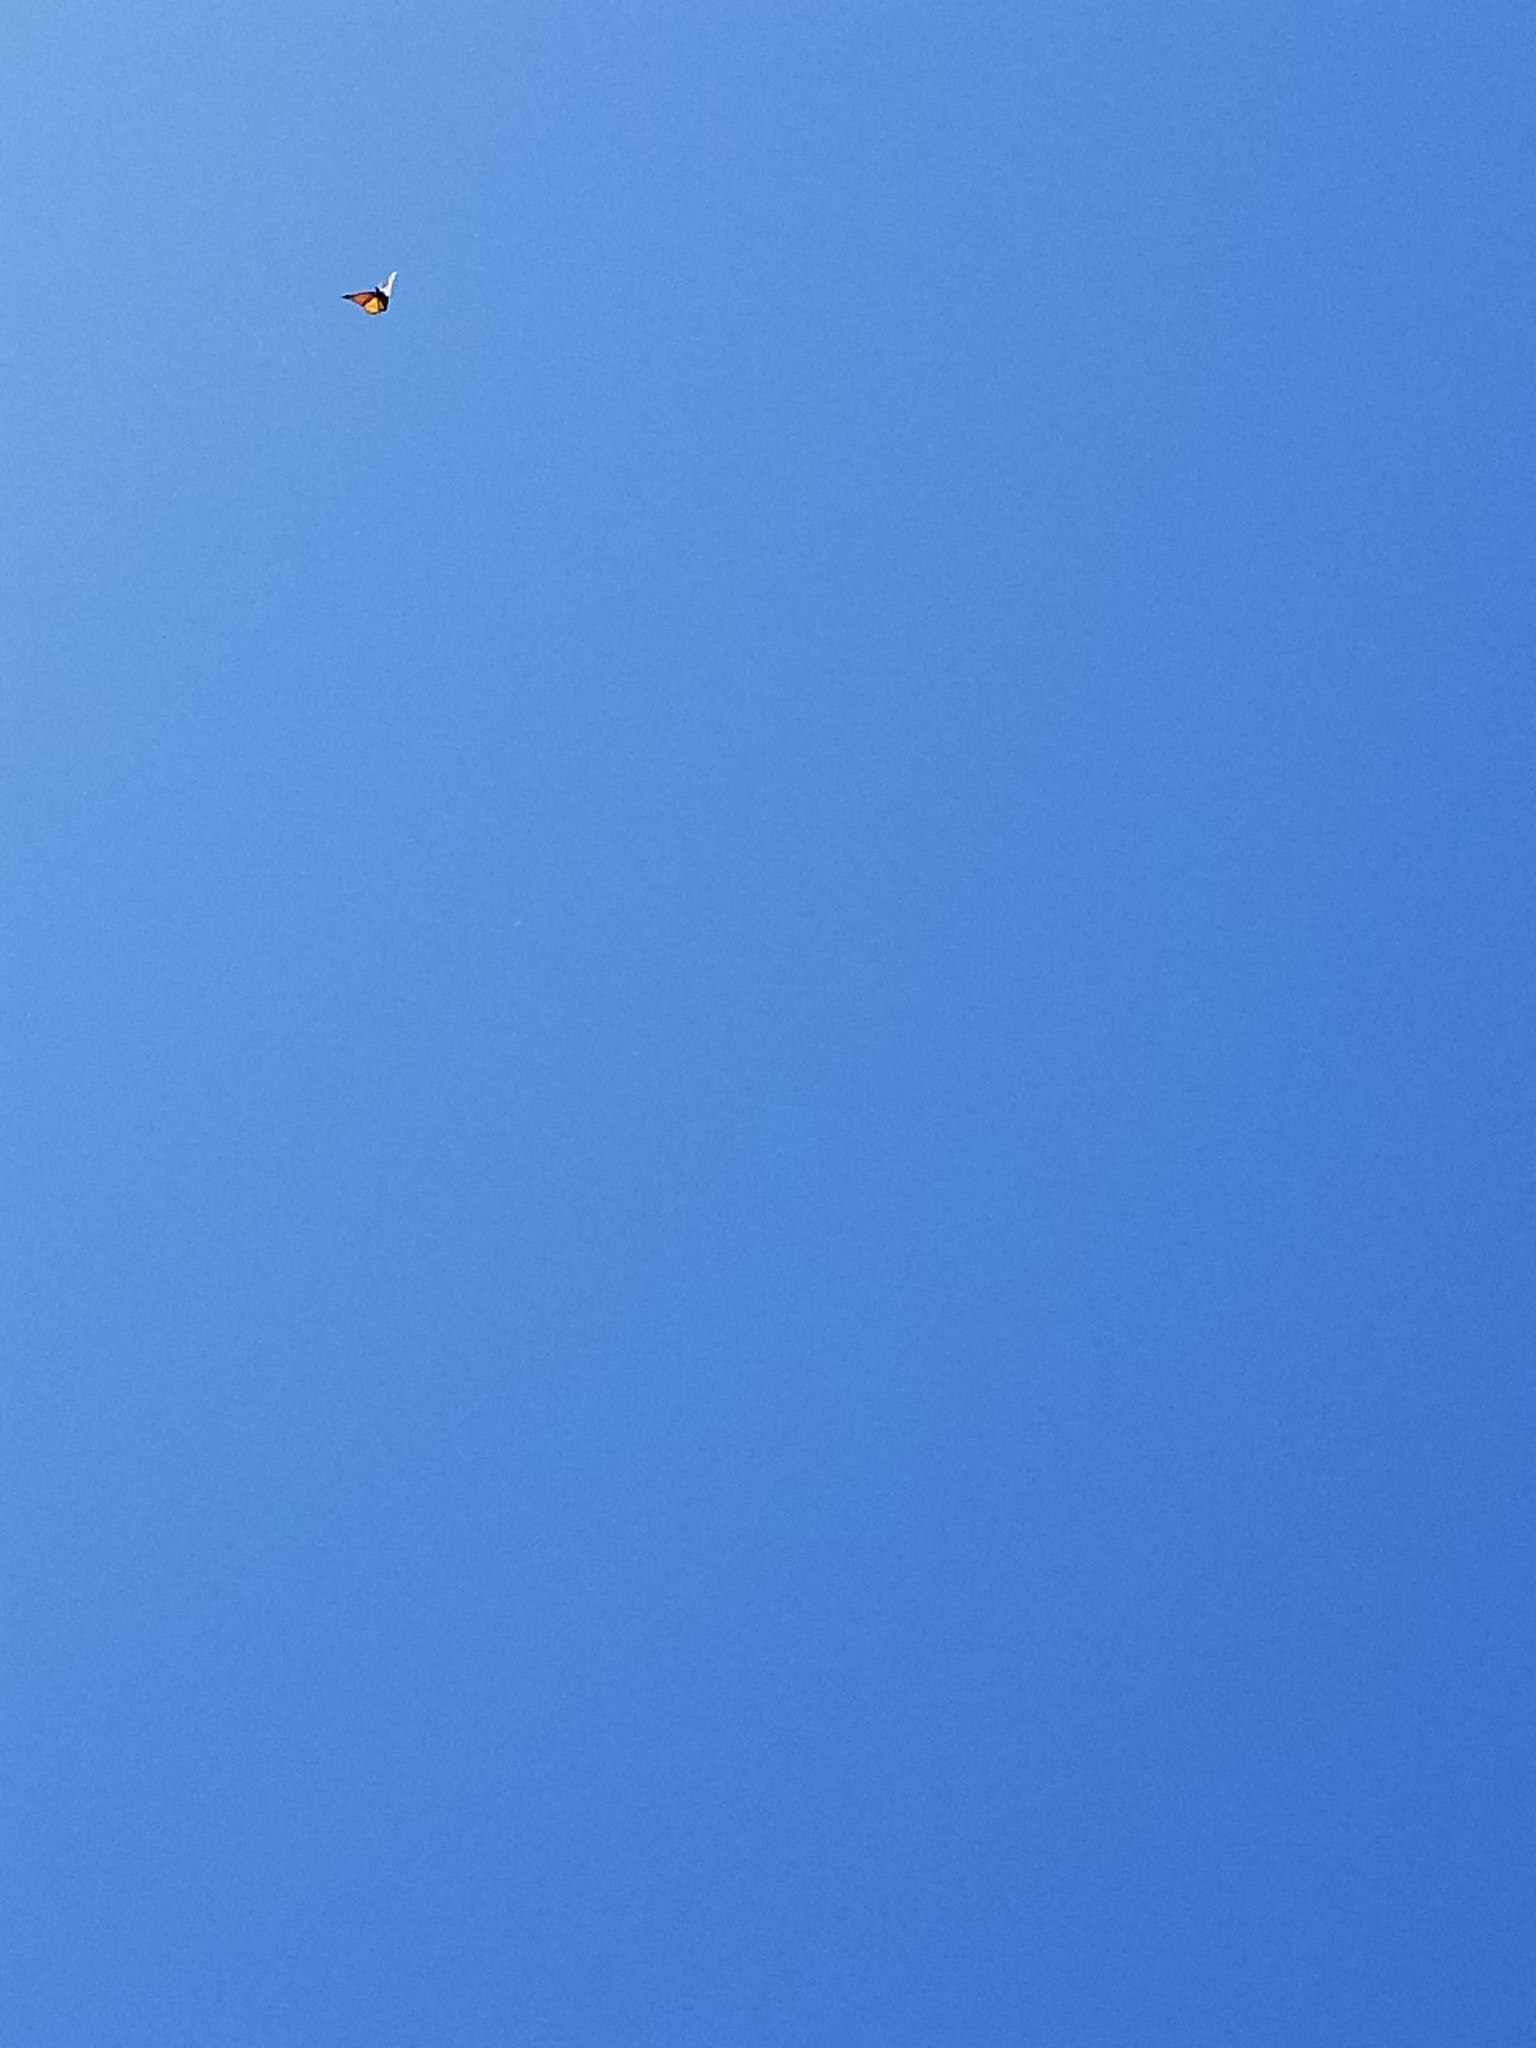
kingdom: Animalia
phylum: Arthropoda
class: Insecta
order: Lepidoptera
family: Nymphalidae
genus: Danaus
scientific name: Danaus plexippus
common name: Monarch
